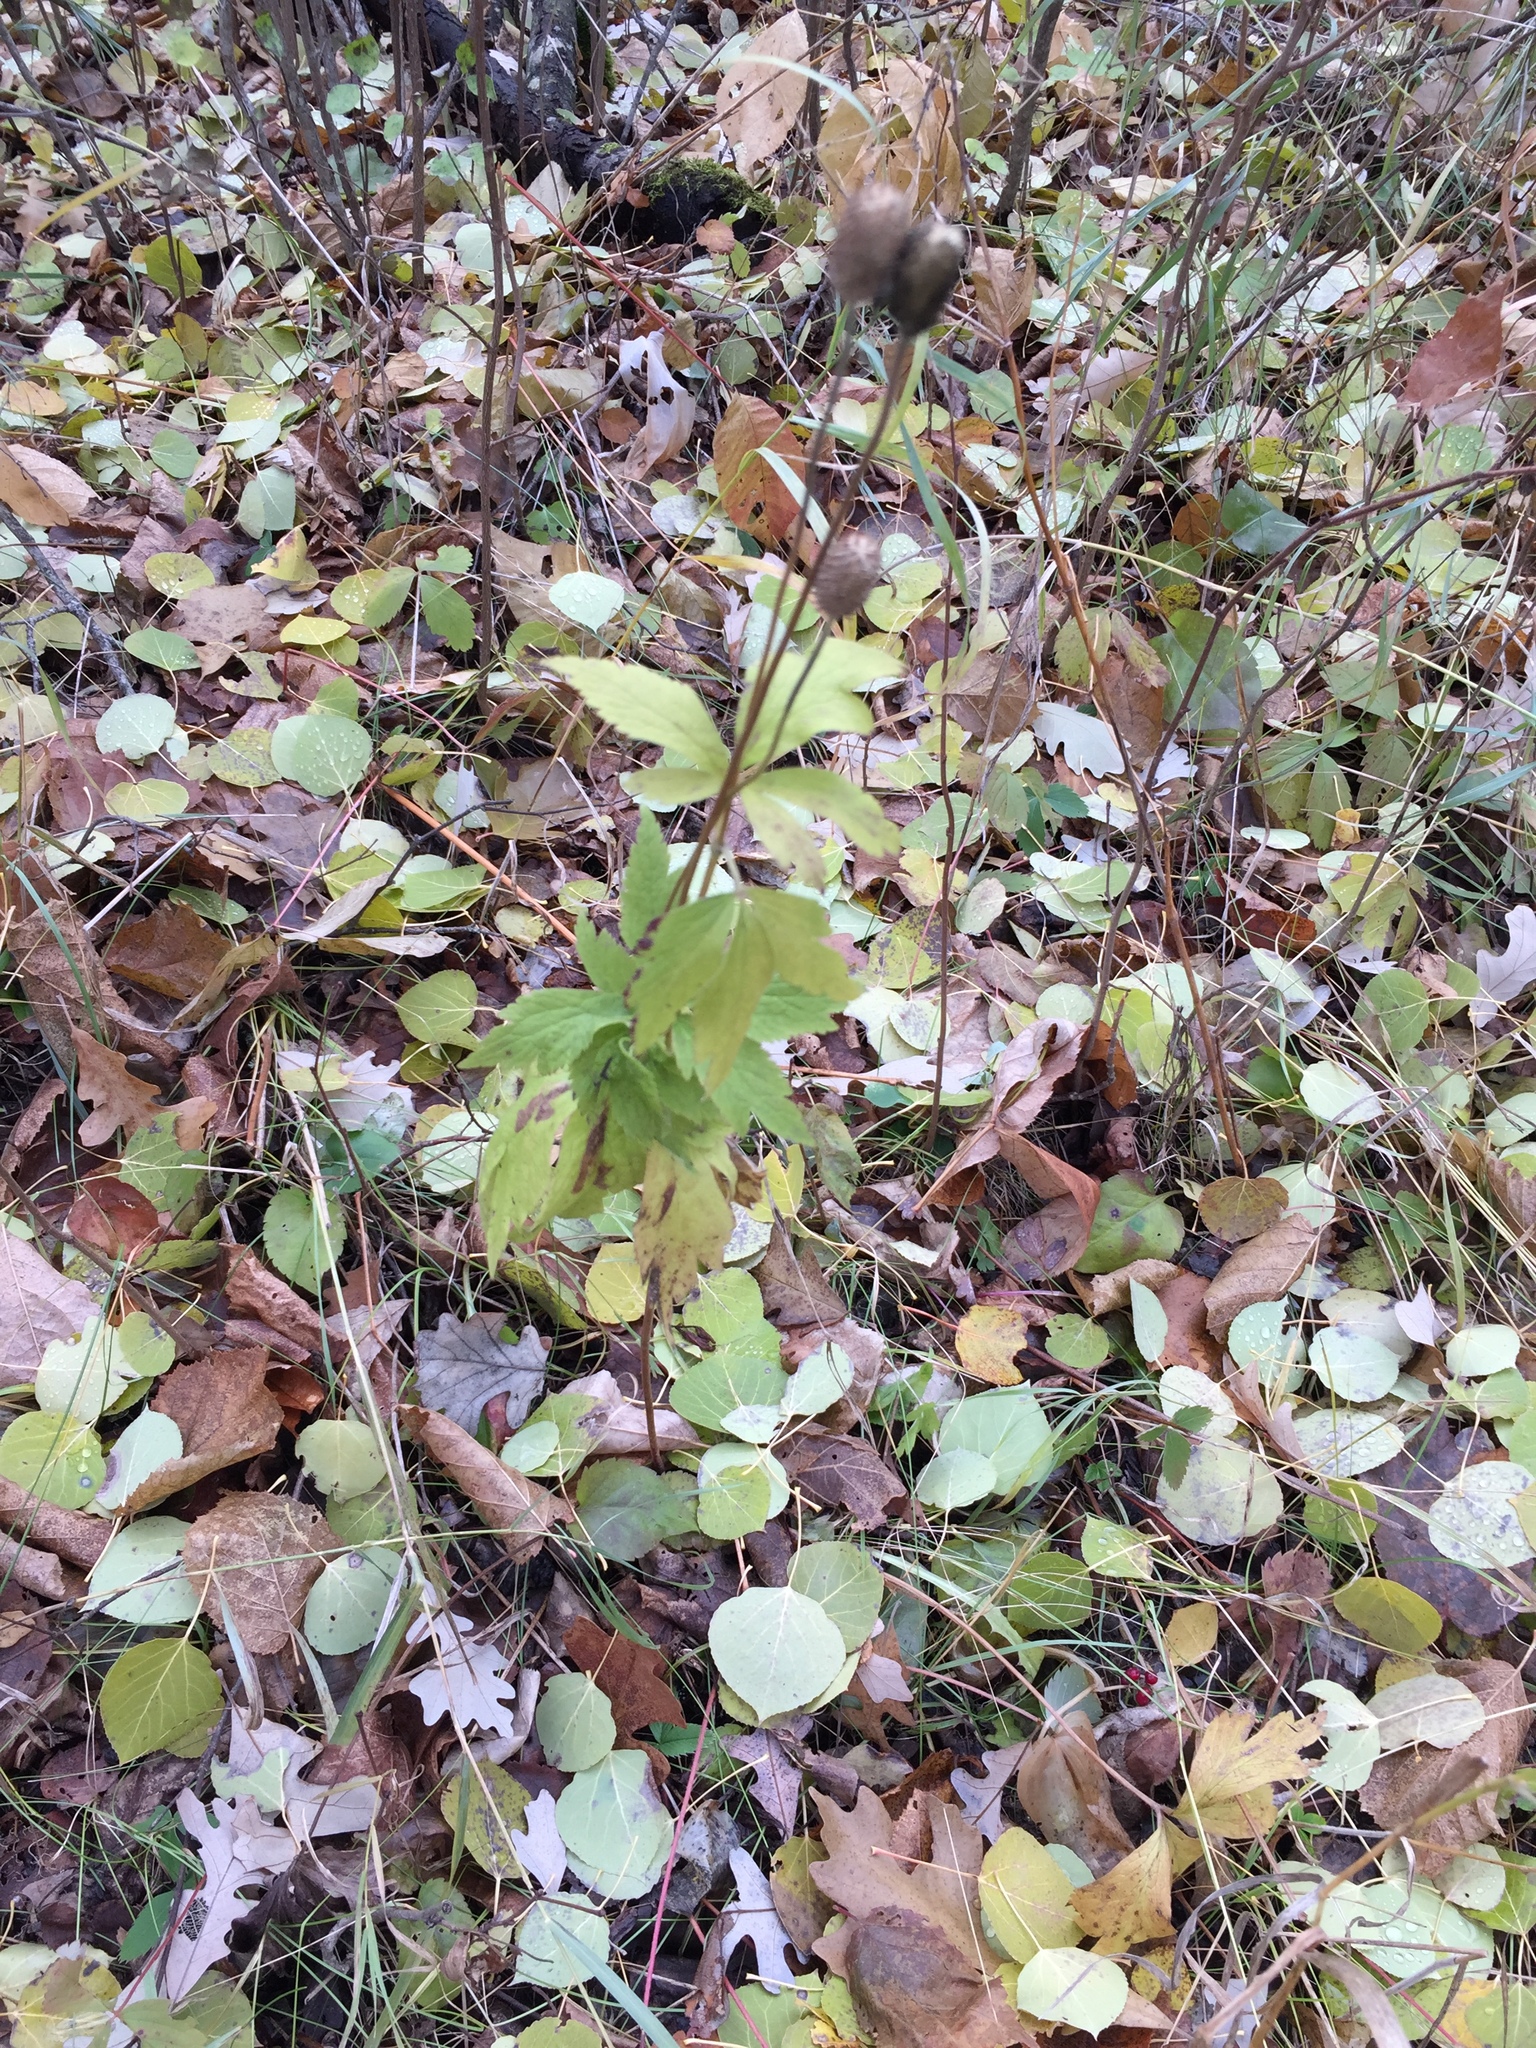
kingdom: Plantae
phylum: Tracheophyta
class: Magnoliopsida
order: Ranunculales
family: Ranunculaceae
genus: Anemone
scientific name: Anemone virginiana
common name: Tall anemone
